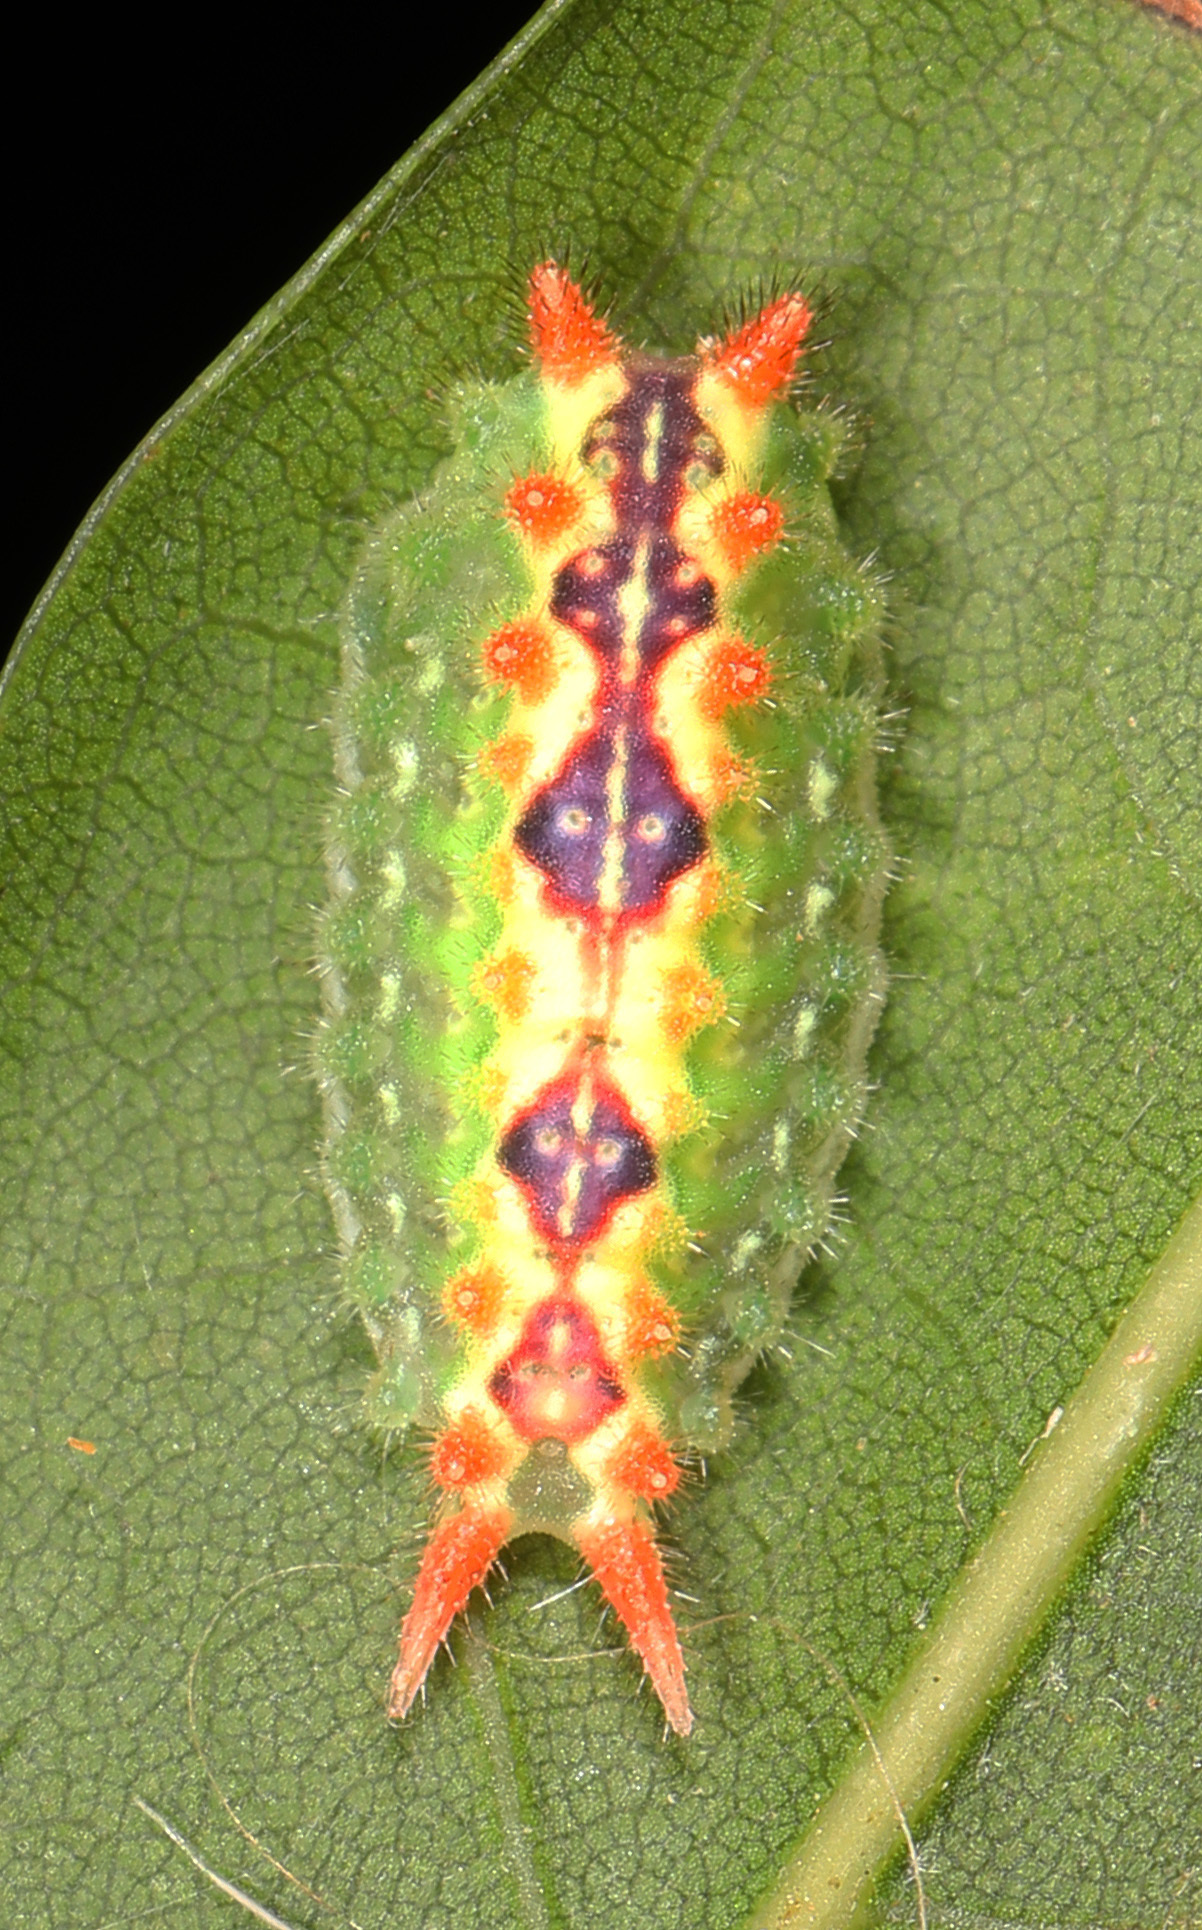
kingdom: Animalia
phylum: Arthropoda
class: Insecta
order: Lepidoptera
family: Limacodidae
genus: Adoneta
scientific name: Adoneta bicaudata
